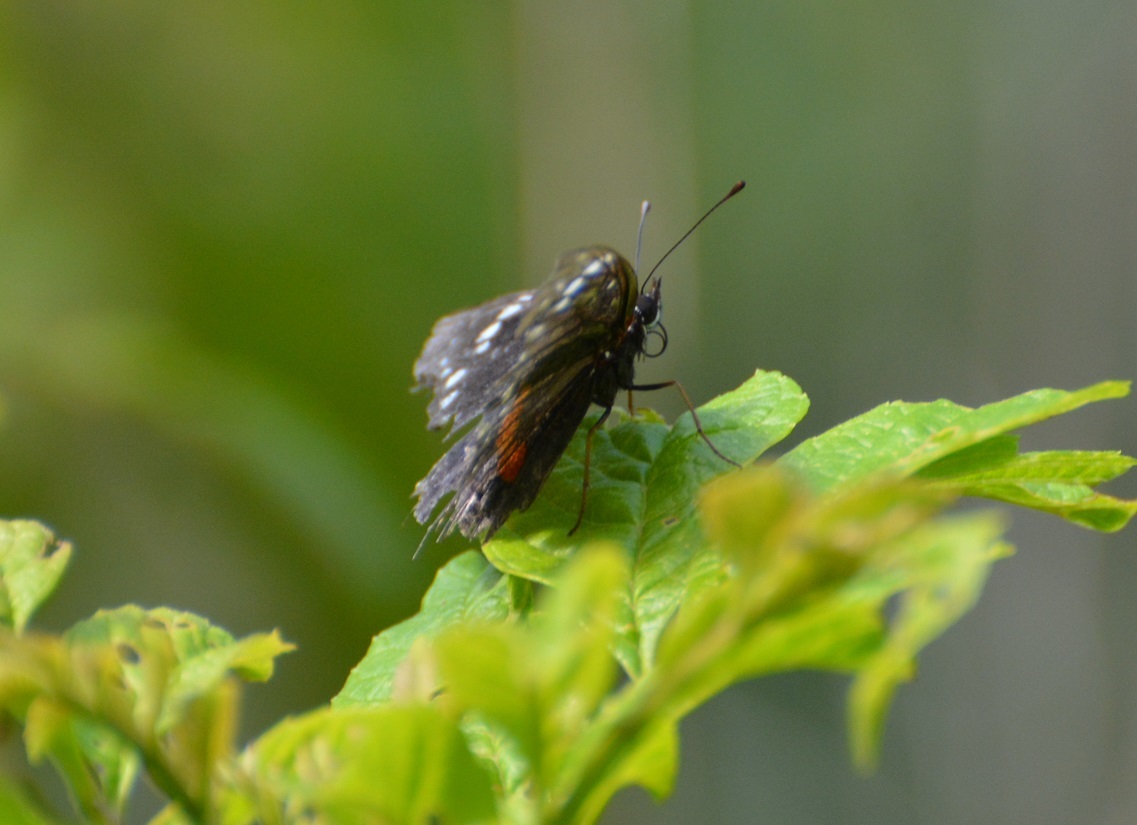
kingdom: Animalia
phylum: Arthropoda
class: Insecta
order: Lepidoptera
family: Nymphalidae
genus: Chlosyne
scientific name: Chlosyne hippodrome
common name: Simple patch
